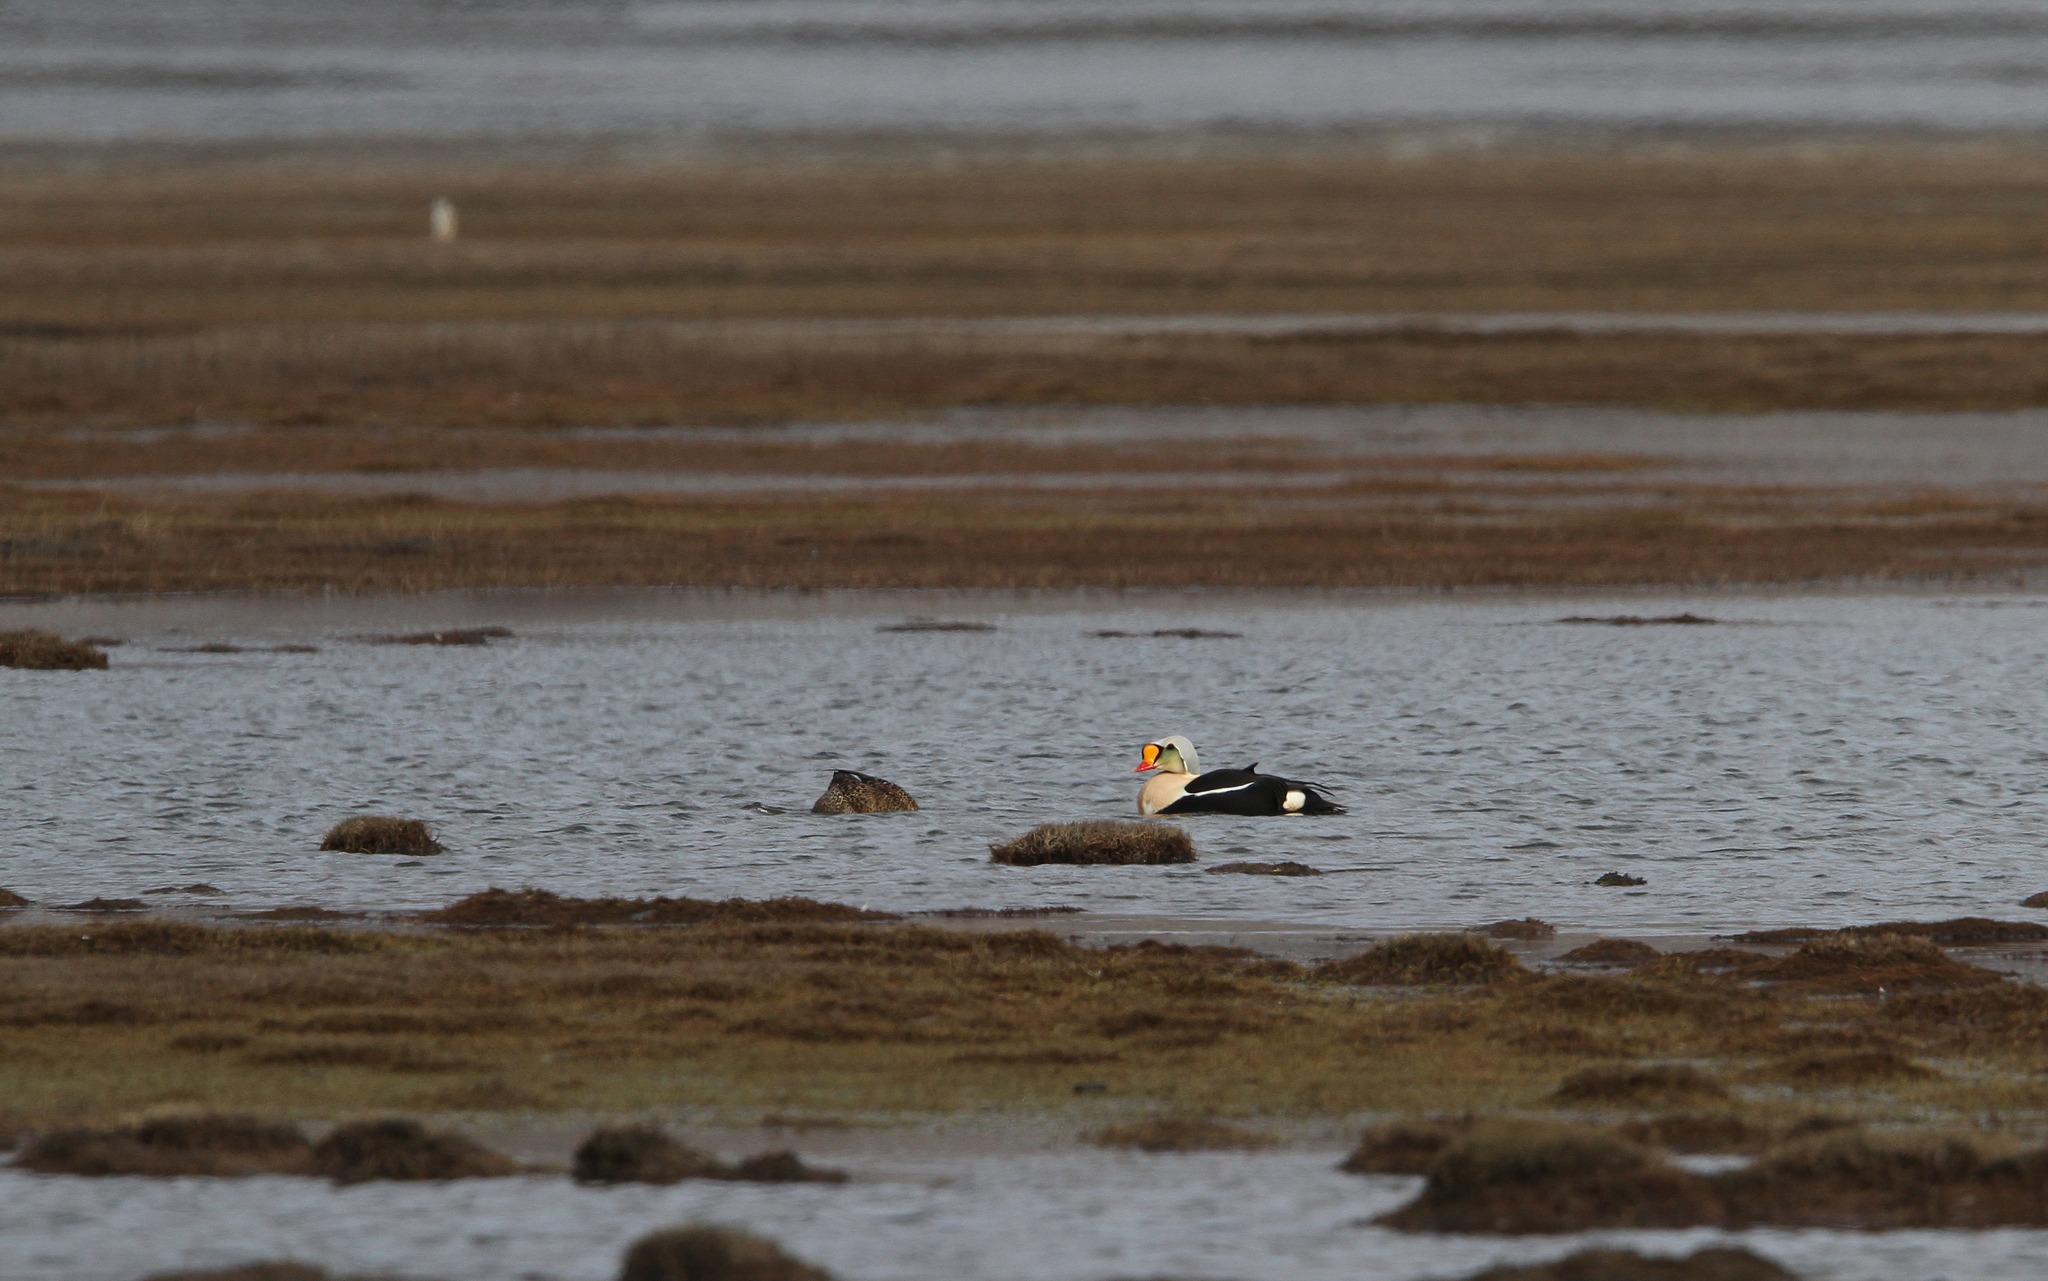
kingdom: Animalia
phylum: Chordata
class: Aves
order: Anseriformes
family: Anatidae
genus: Somateria
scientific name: Somateria spectabilis
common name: King eider
